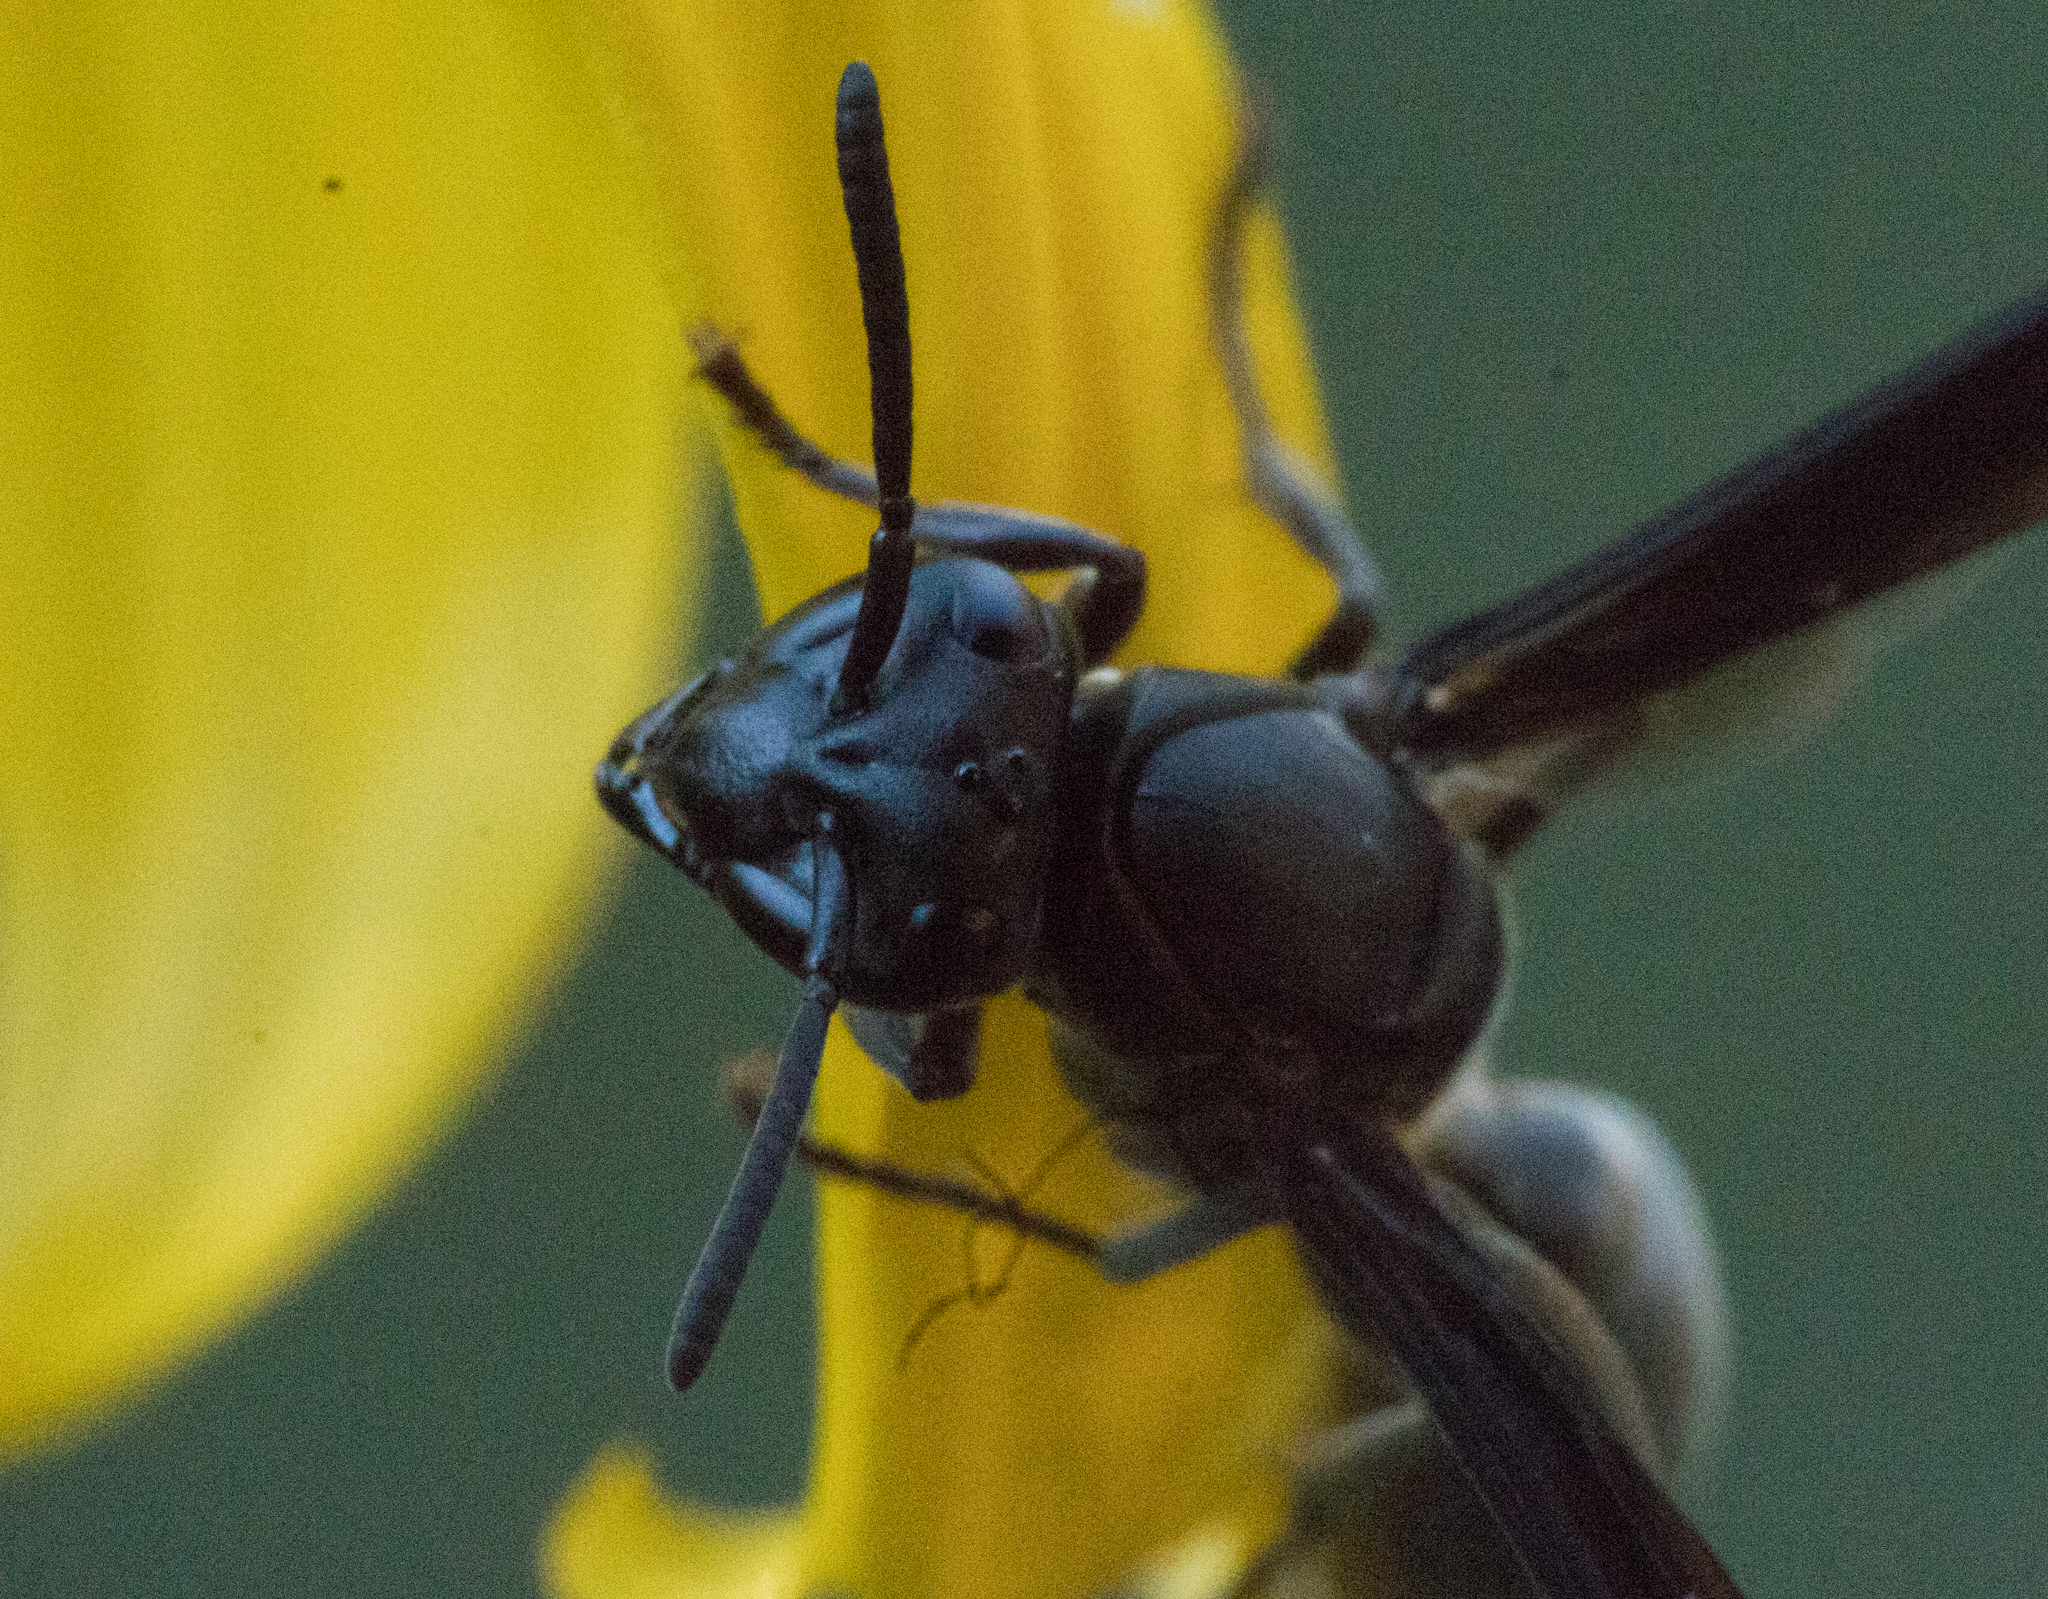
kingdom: Animalia
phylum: Arthropoda
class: Insecta
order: Hymenoptera
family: Eumenidae
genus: Polybia
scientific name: Polybia ignobilis
